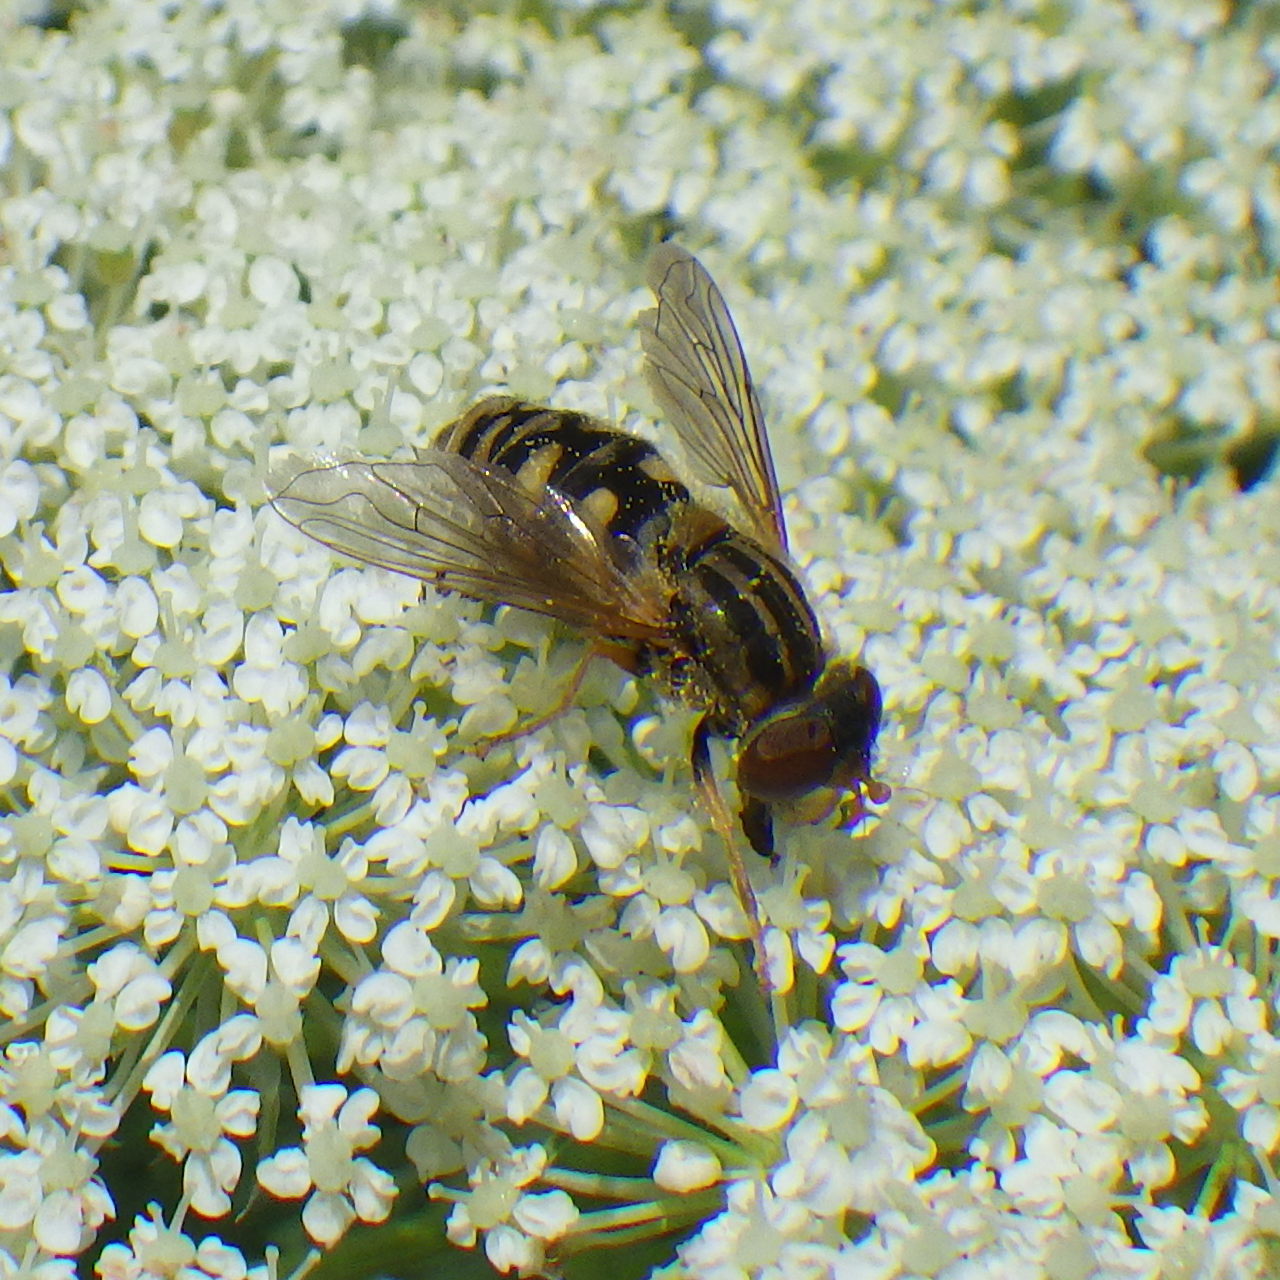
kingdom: Animalia
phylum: Arthropoda
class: Insecta
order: Diptera
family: Syrphidae
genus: Parhelophilus
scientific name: Parhelophilus laetus
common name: Common bog fly
